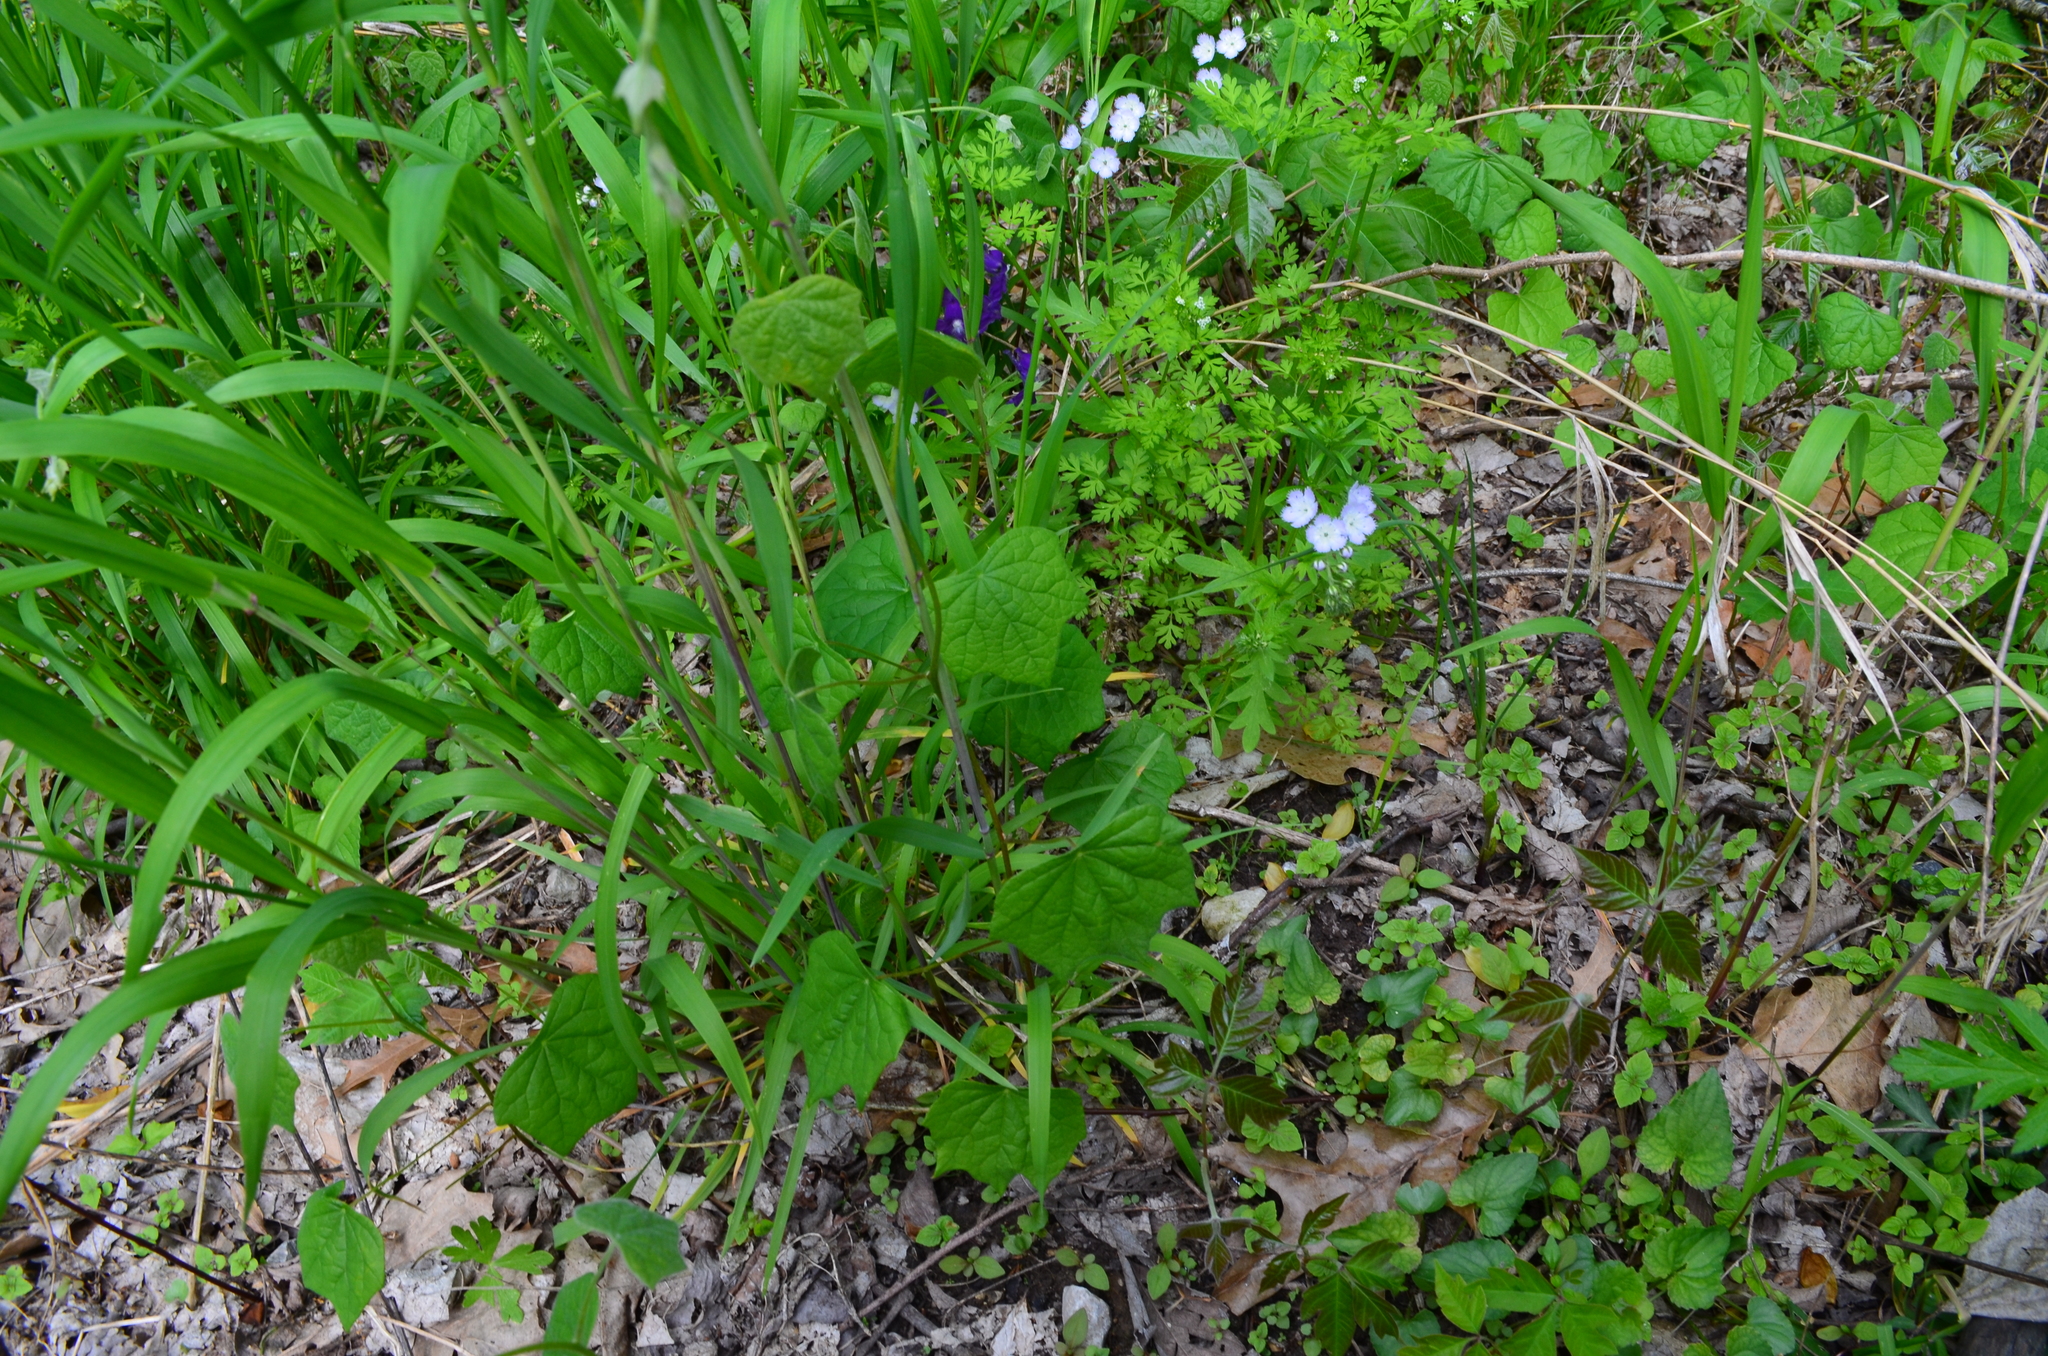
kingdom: Plantae
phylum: Tracheophyta
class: Magnoliopsida
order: Ranunculales
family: Menispermaceae
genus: Menispermum
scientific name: Menispermum canadense
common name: Moonseed
